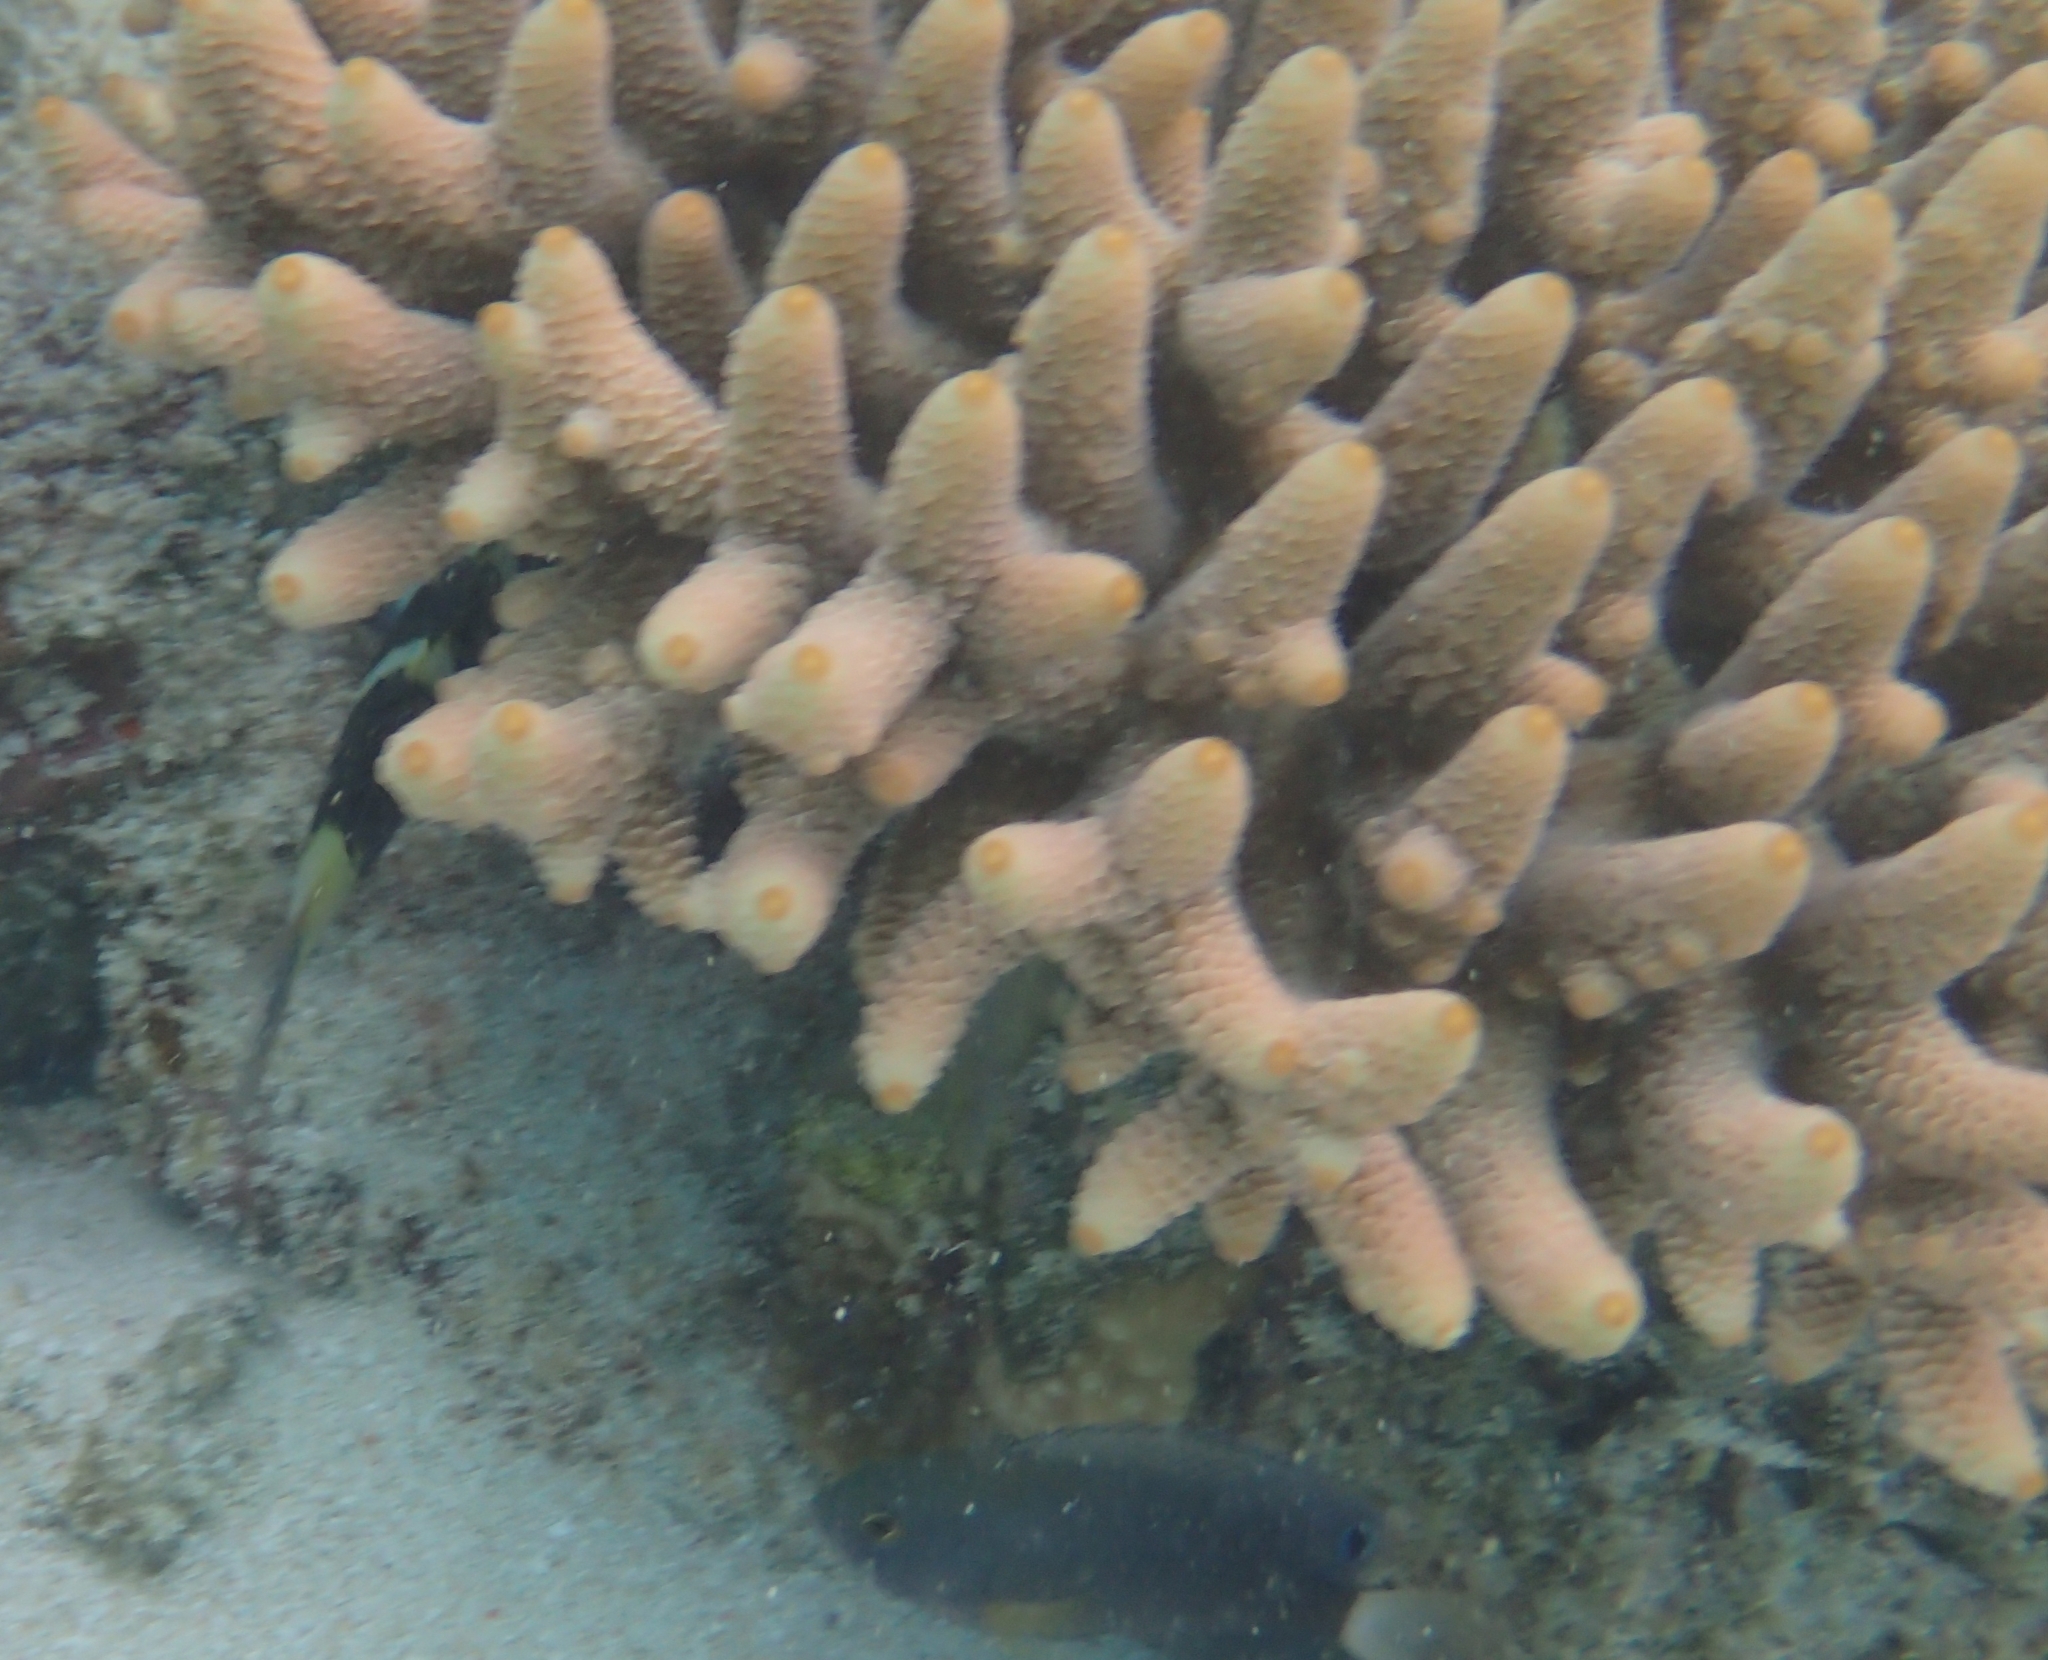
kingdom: Animalia
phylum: Cnidaria
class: Anthozoa
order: Scleractinia
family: Acroporidae
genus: Acropora
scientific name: Acropora spathulata
